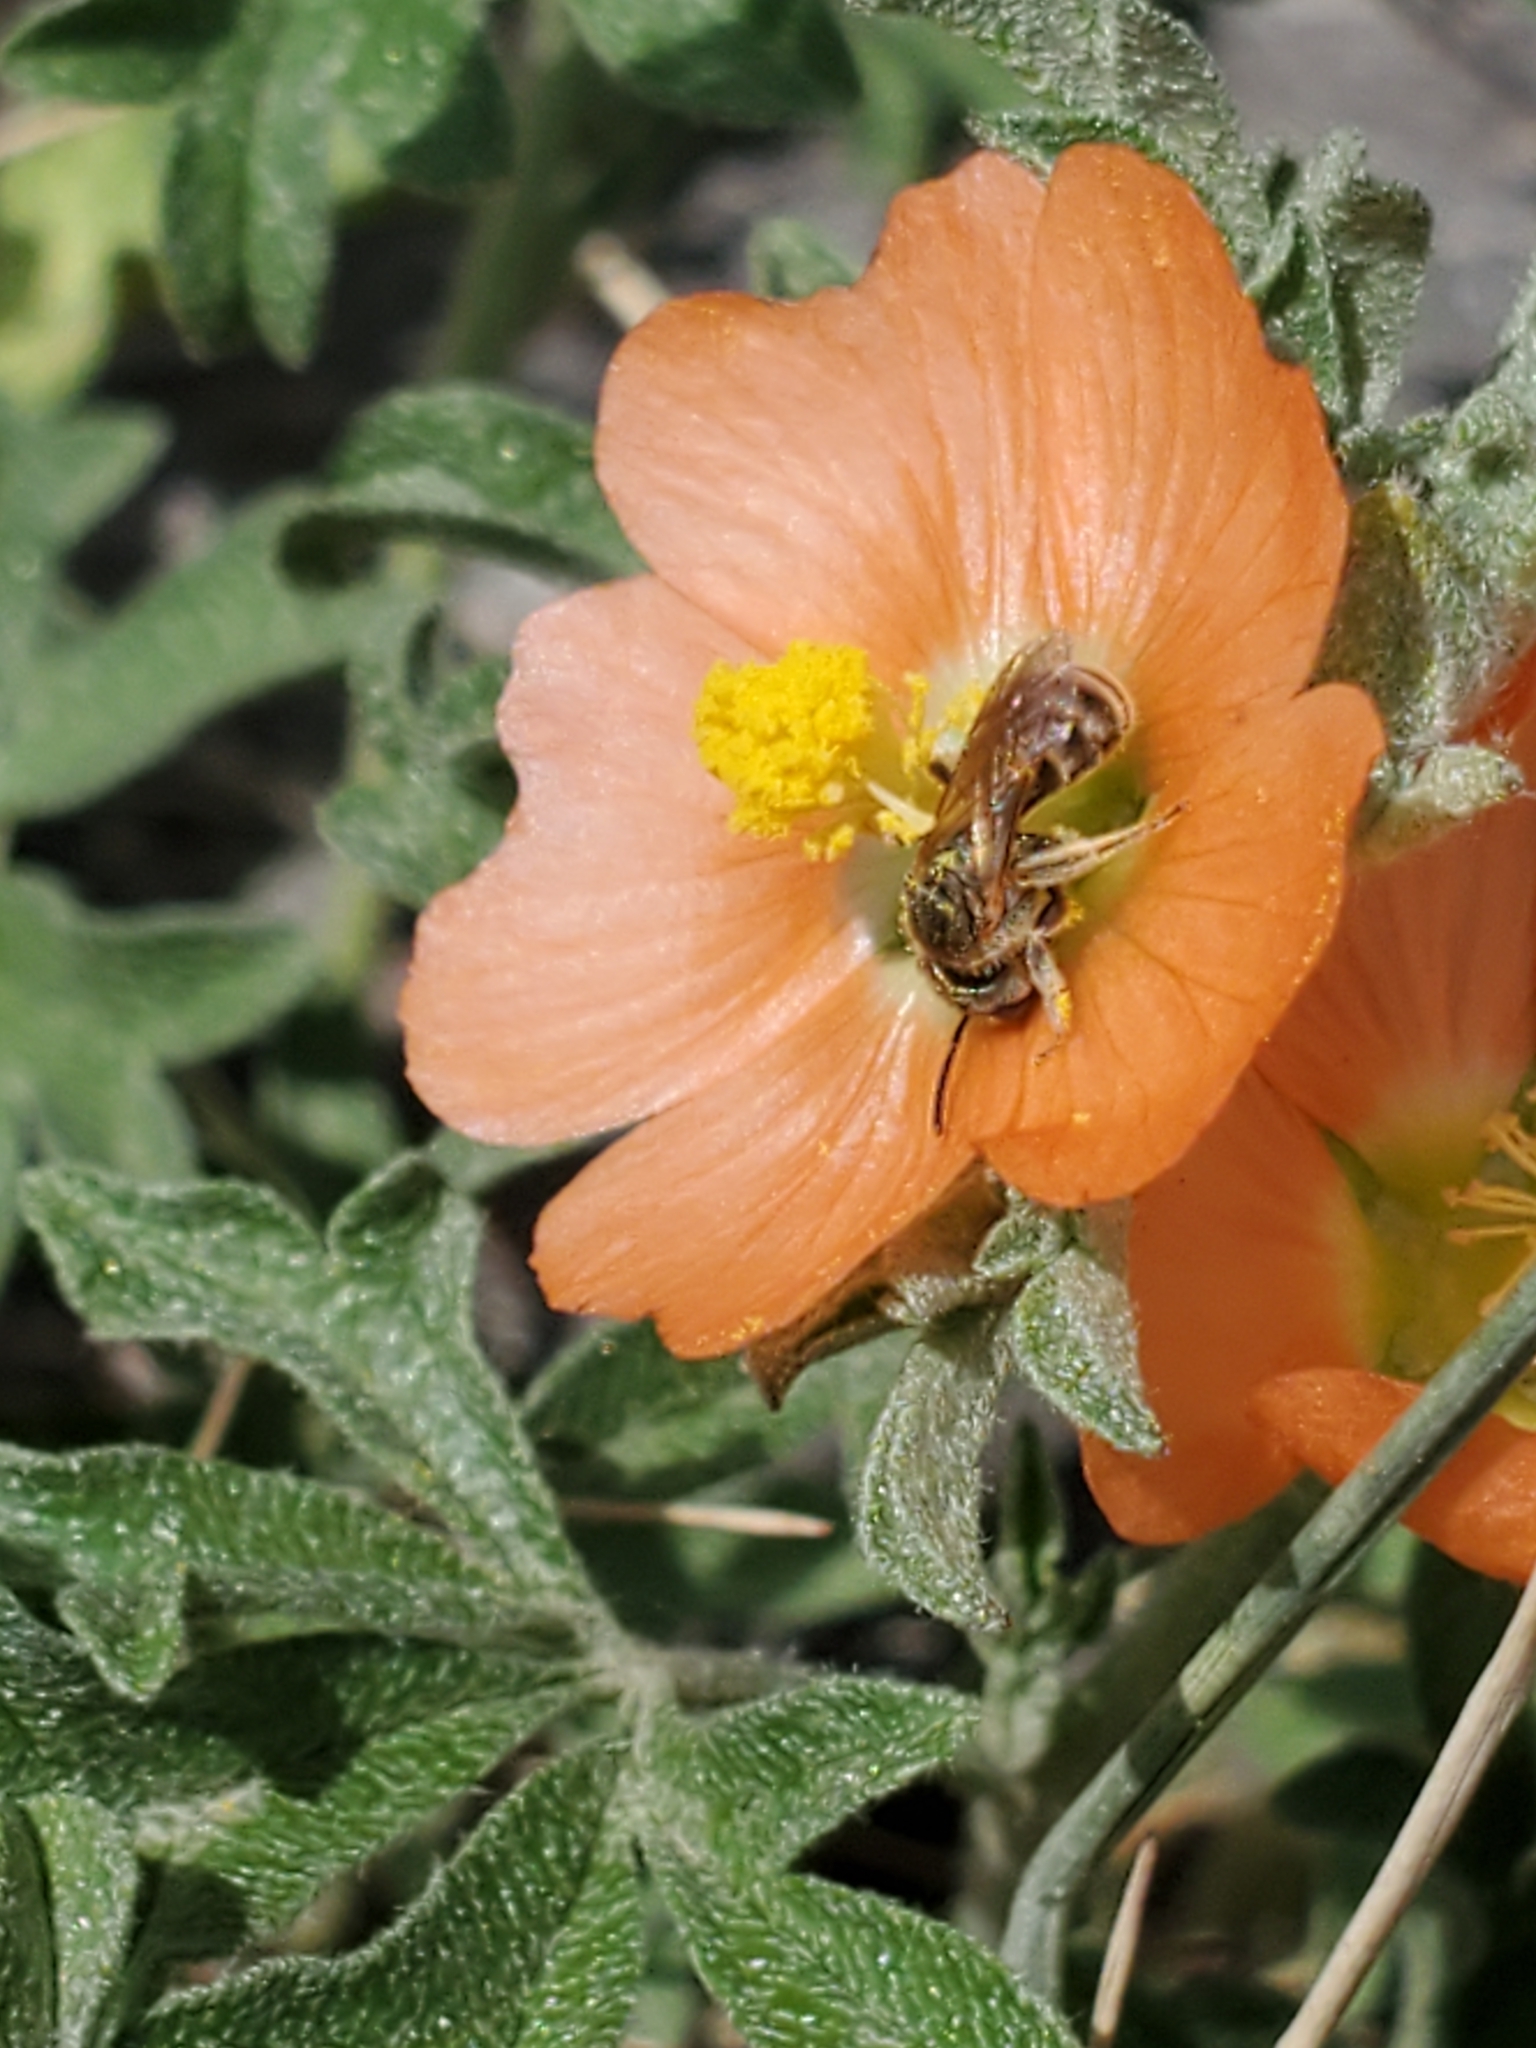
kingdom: Animalia
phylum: Arthropoda
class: Insecta
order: Hymenoptera
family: Halictidae
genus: Halictus
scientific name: Halictus confusus
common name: Southern bronze furrow bee
